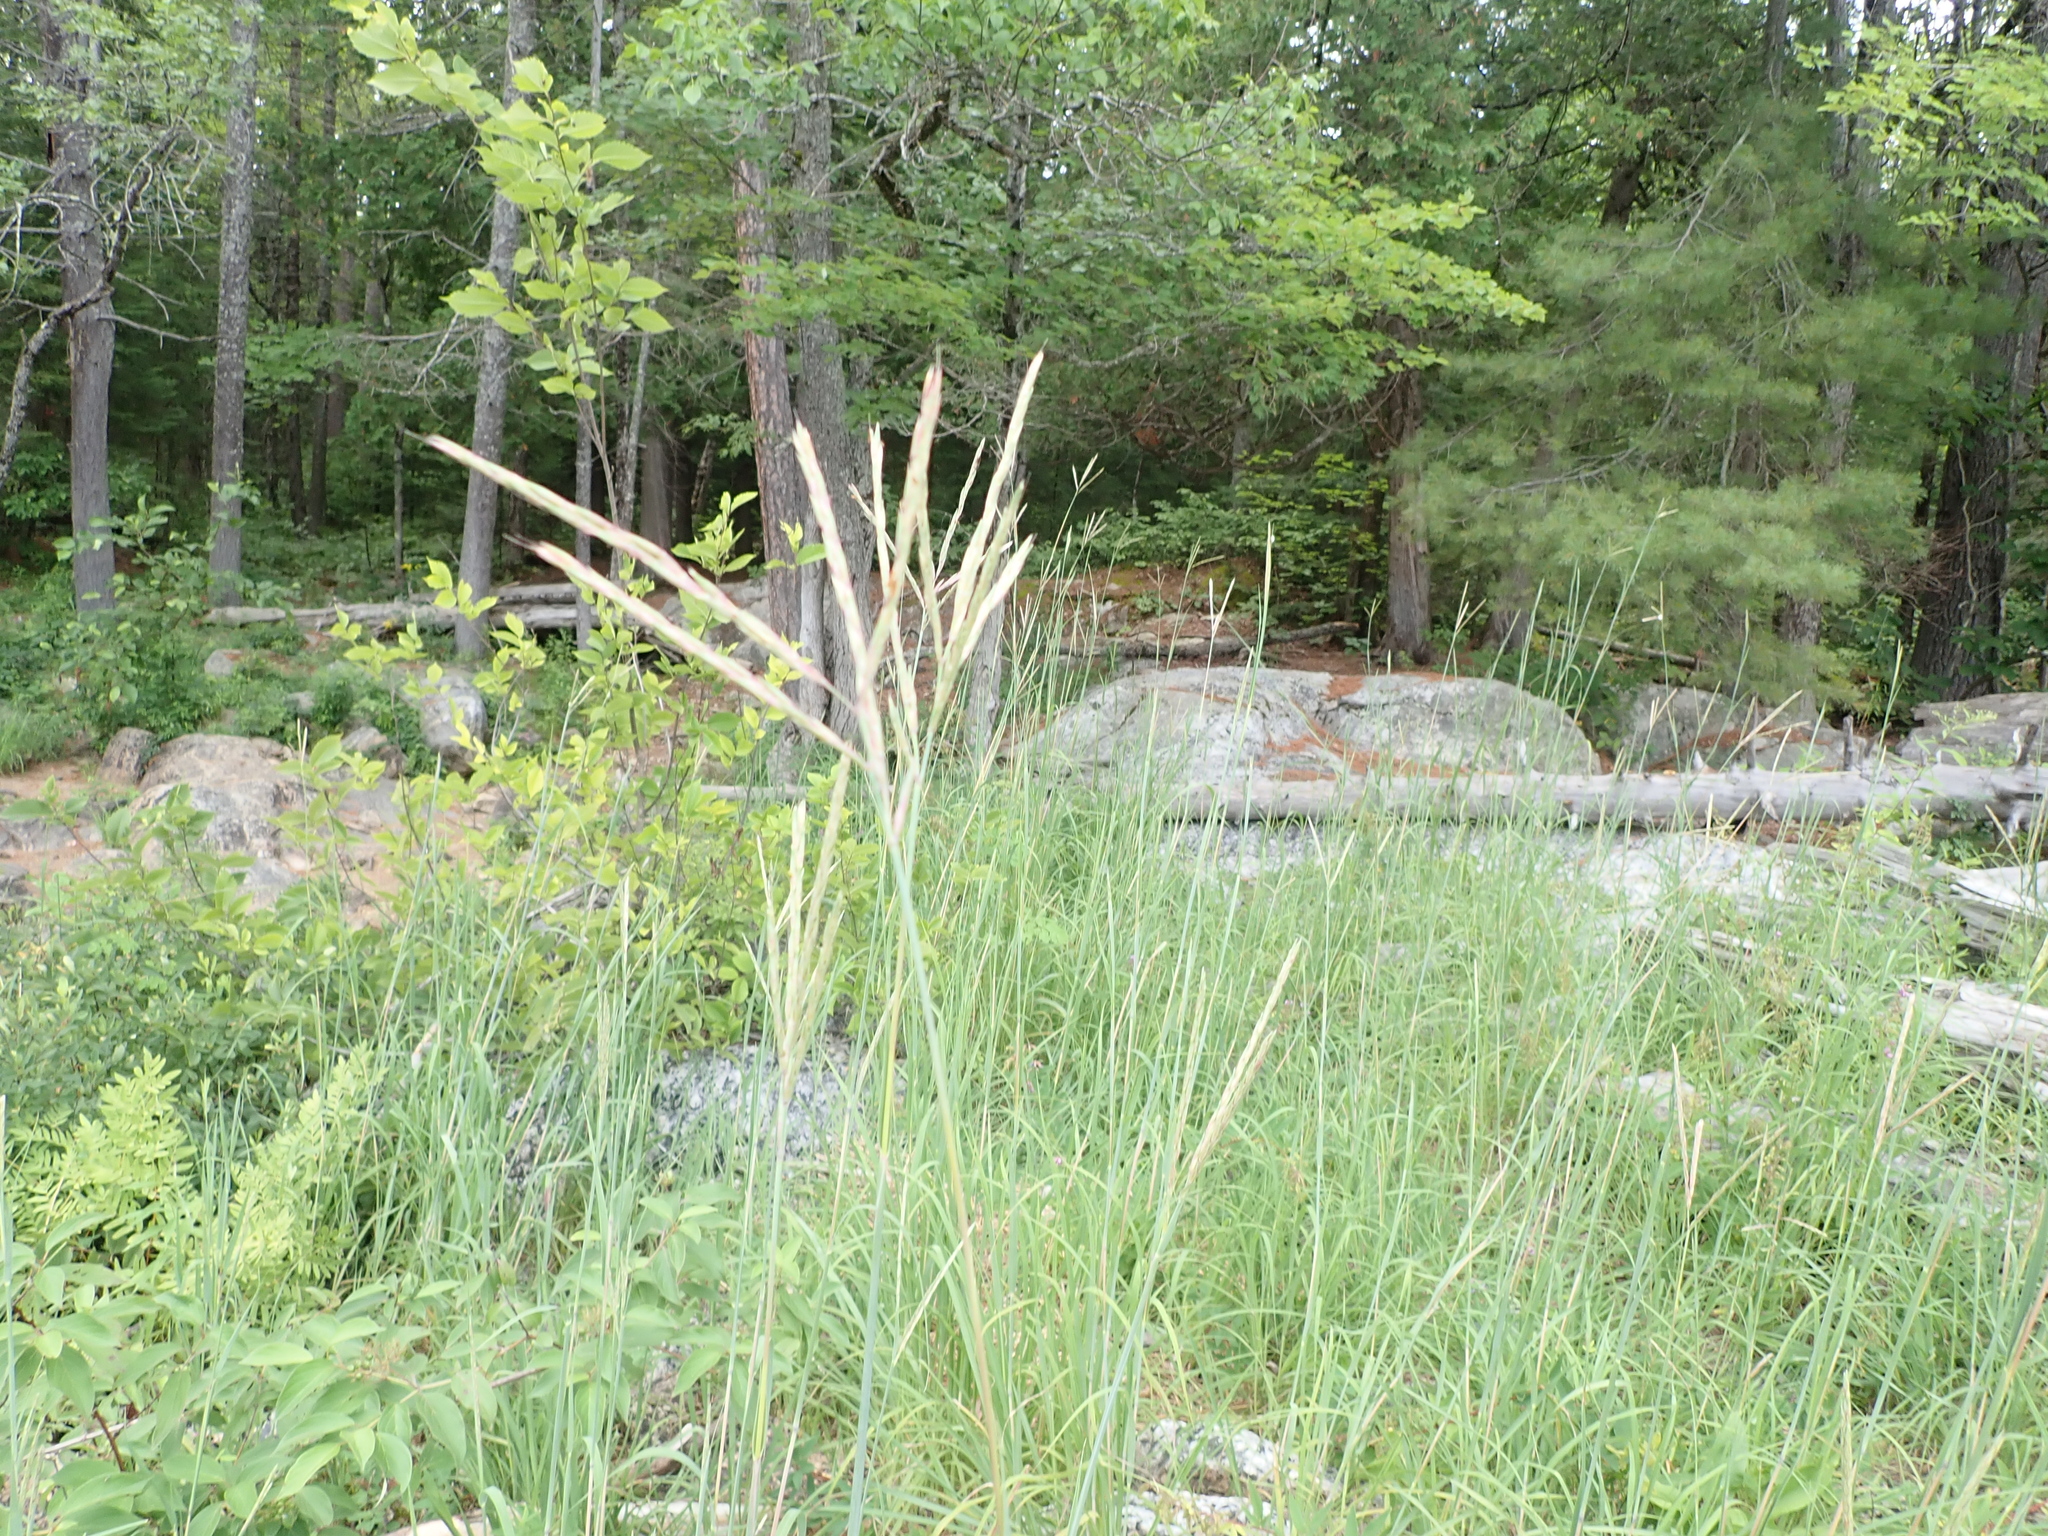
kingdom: Plantae
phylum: Tracheophyta
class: Liliopsida
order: Poales
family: Poaceae
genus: Andropogon
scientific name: Andropogon gerardi
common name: Big bluestem
